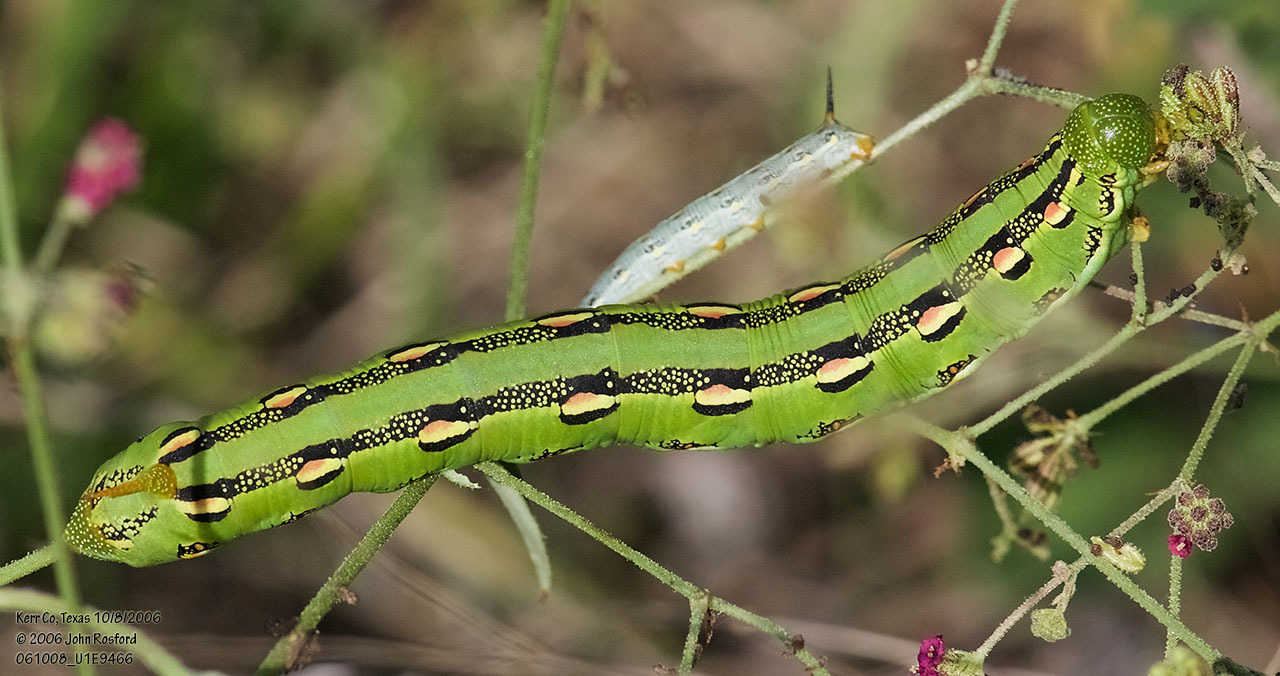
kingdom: Animalia
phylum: Arthropoda
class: Insecta
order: Lepidoptera
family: Sphingidae
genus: Hyles
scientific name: Hyles lineata
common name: White-lined sphinx
